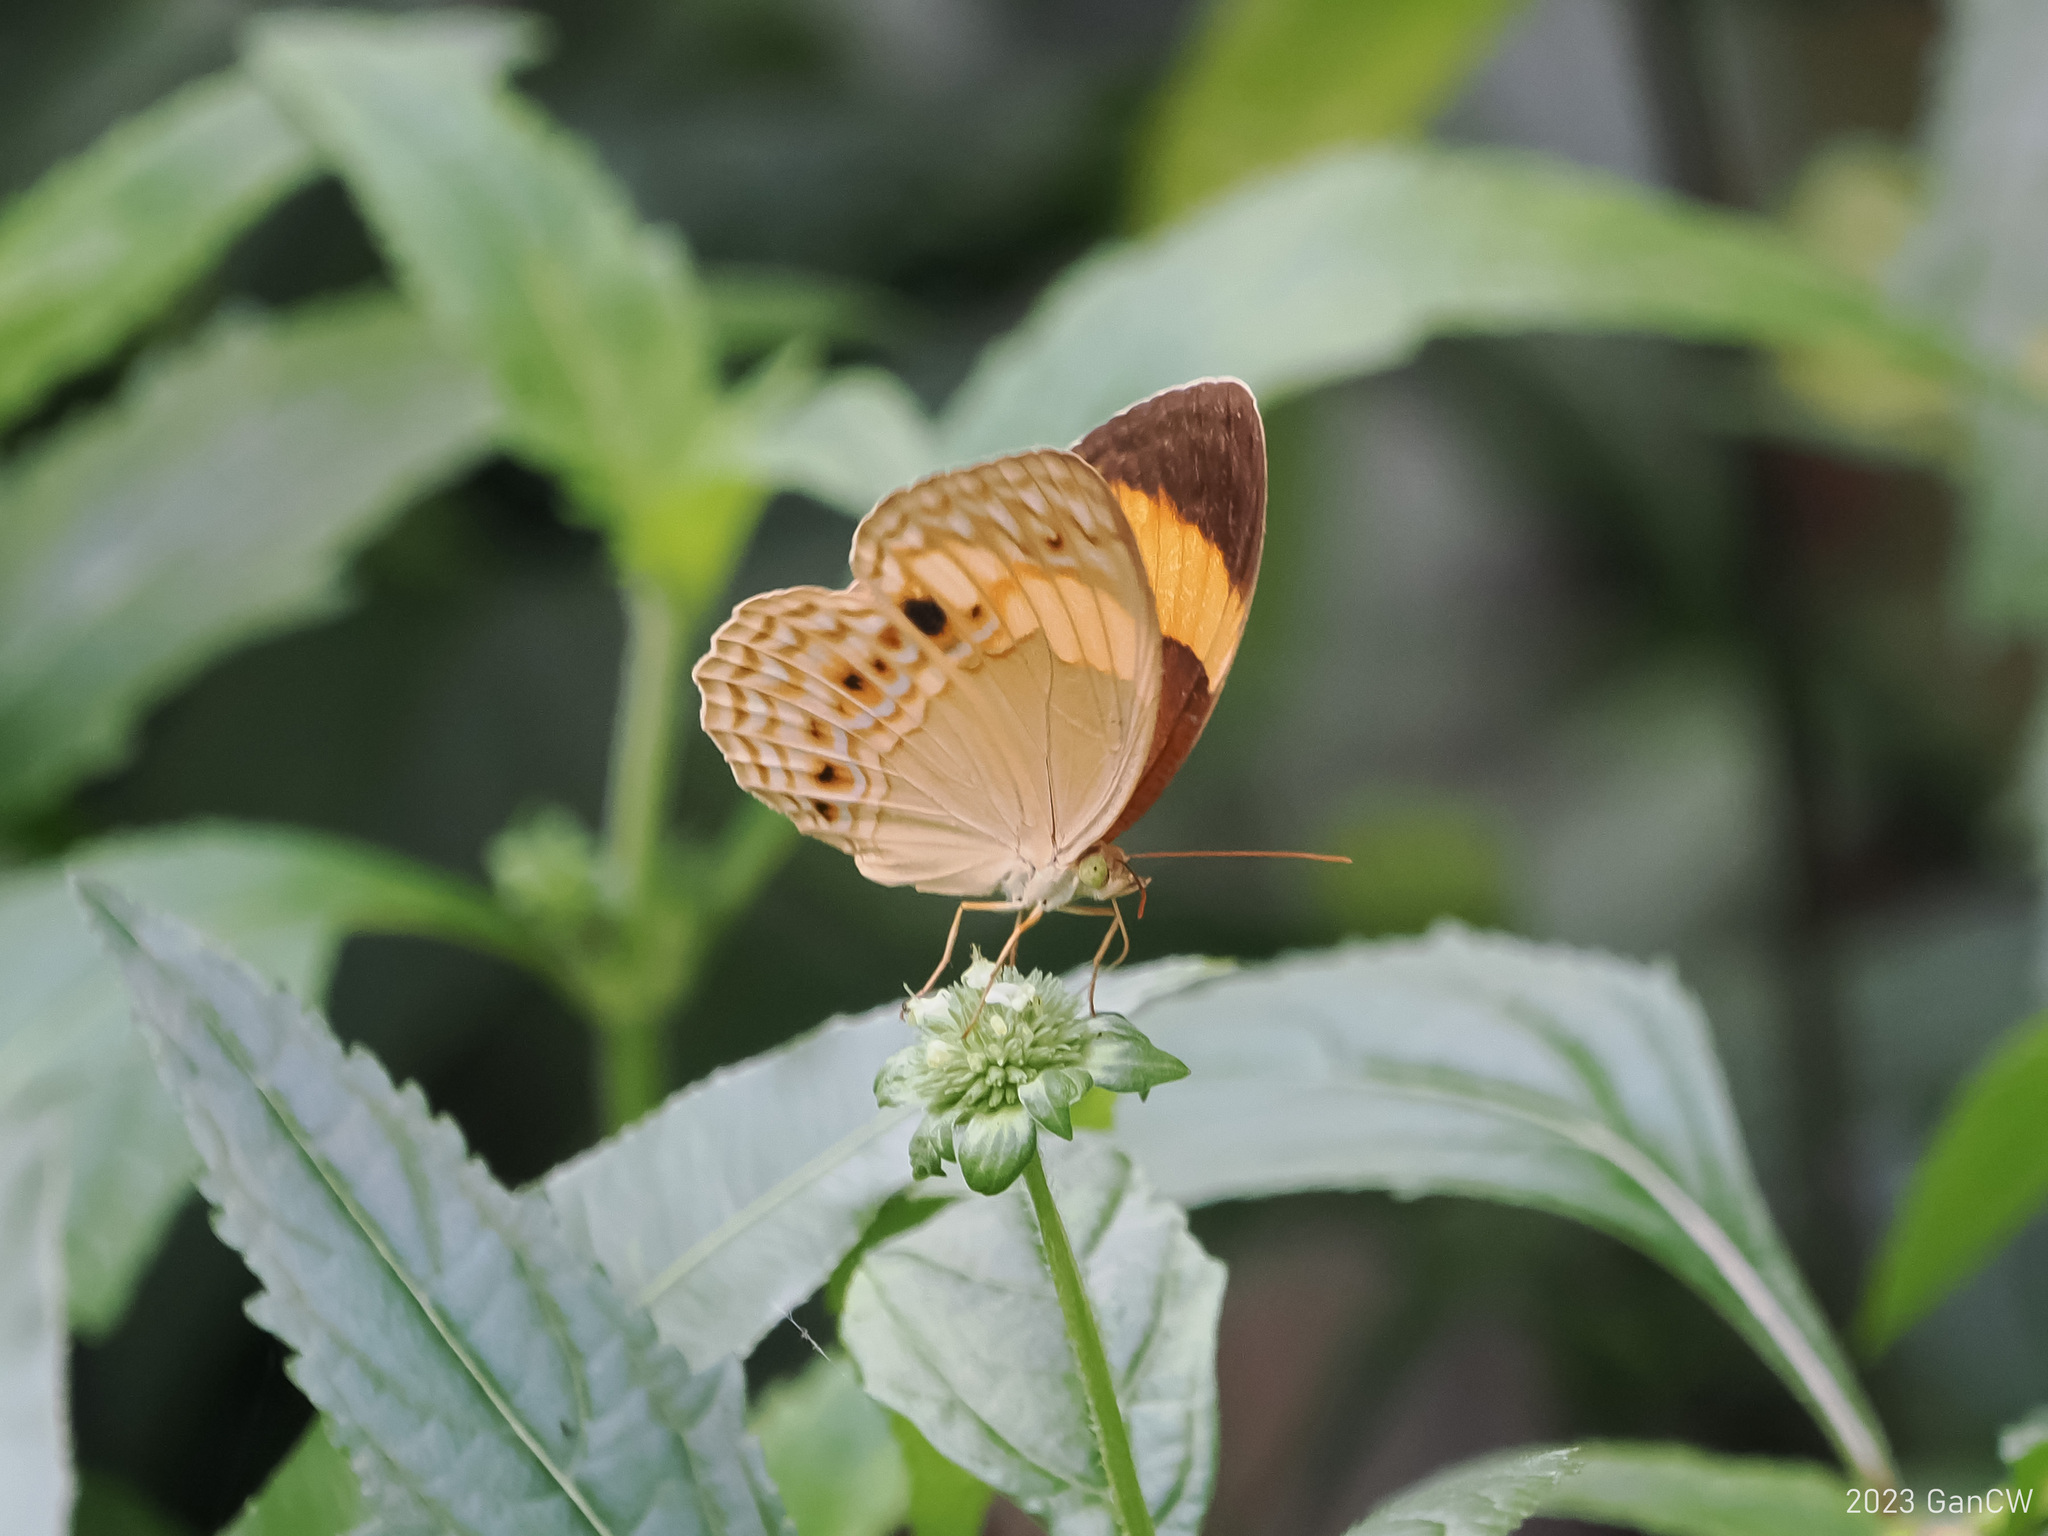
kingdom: Animalia
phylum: Arthropoda
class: Insecta
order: Lepidoptera
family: Nymphalidae
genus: Cupha
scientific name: Cupha maeonides
